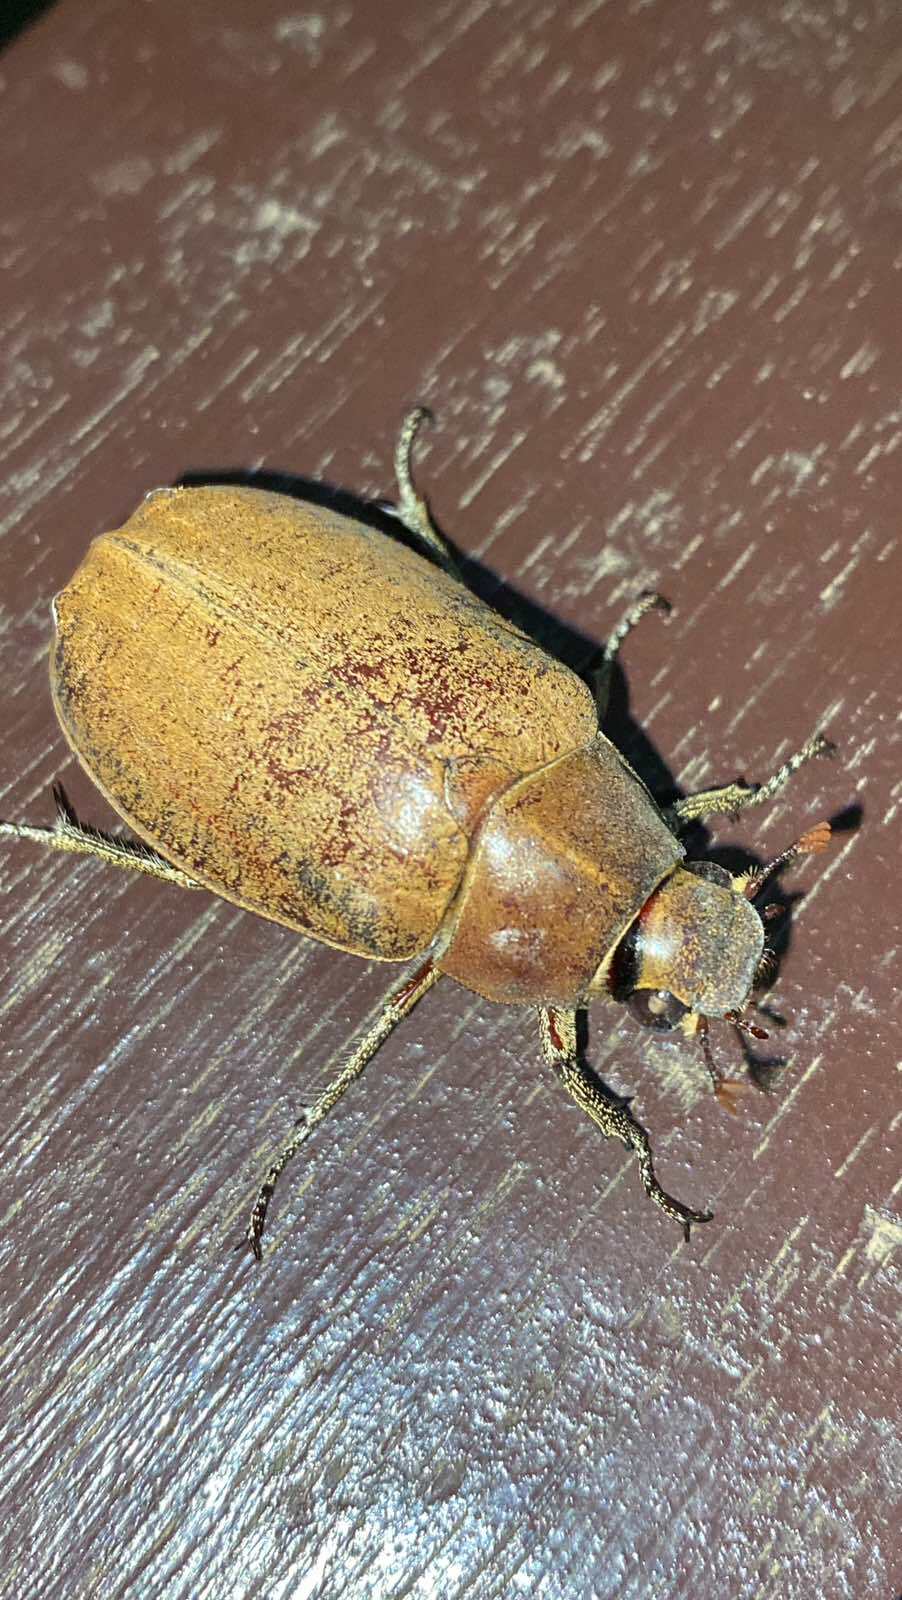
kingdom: Animalia
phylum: Arthropoda
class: Insecta
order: Coleoptera
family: Scarabaeidae
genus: Lepidiota
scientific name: Lepidiota stigma
